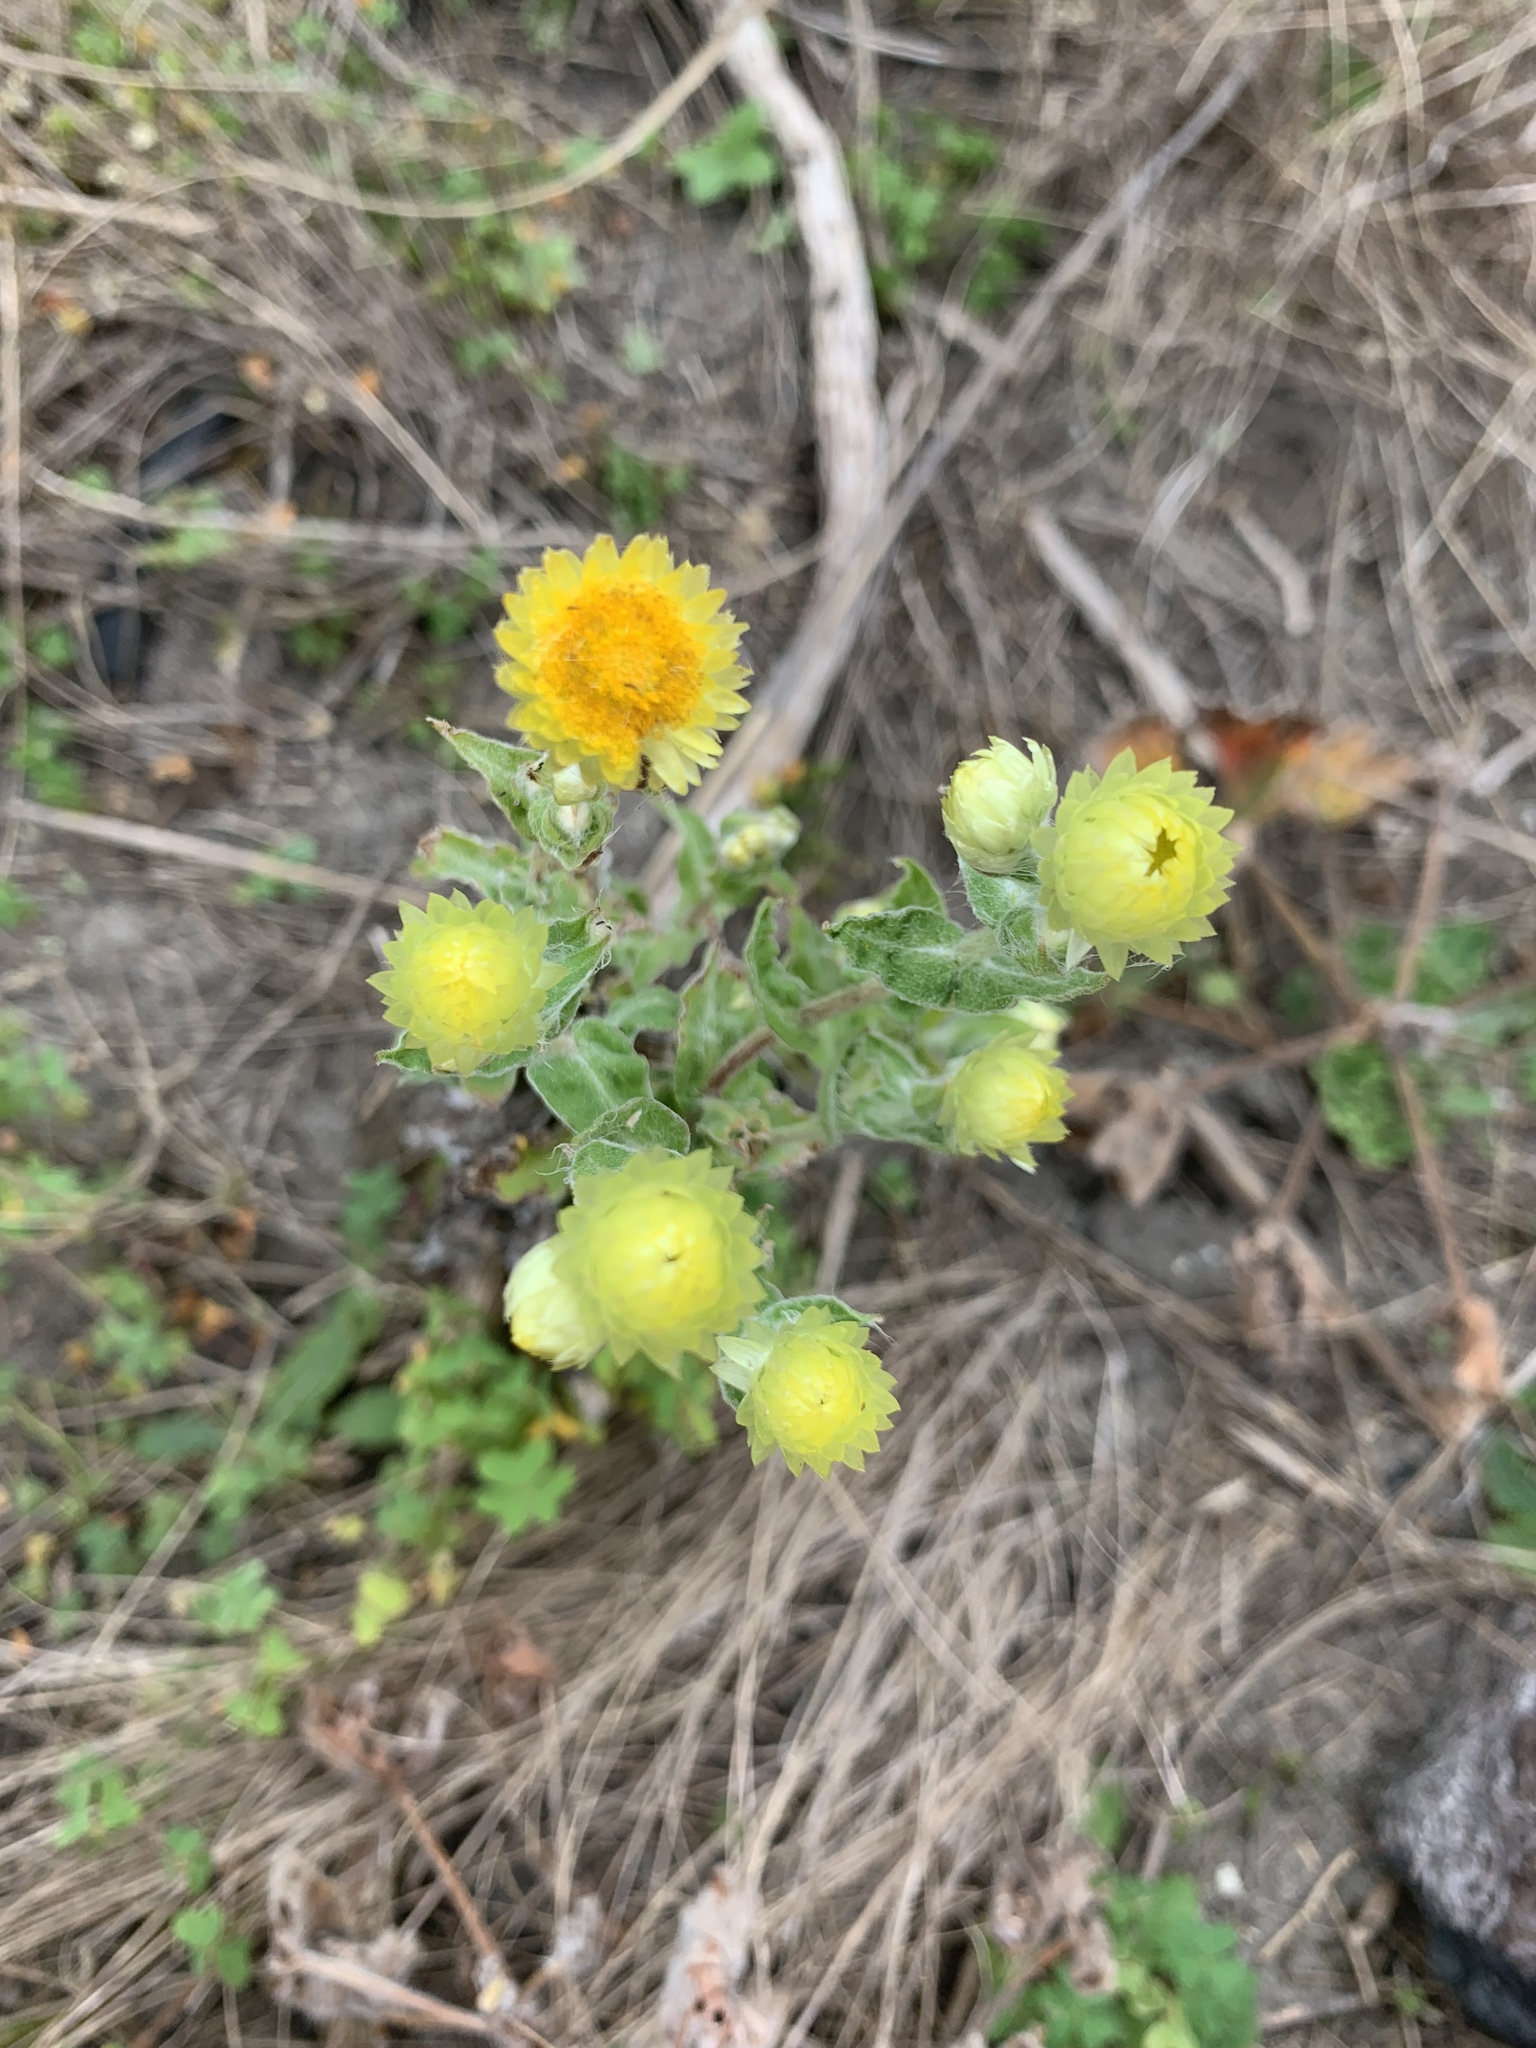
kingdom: Plantae
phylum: Tracheophyta
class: Magnoliopsida
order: Asterales
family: Asteraceae
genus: Helichrysum
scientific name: Helichrysum foetidum
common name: Stinking everlasting
